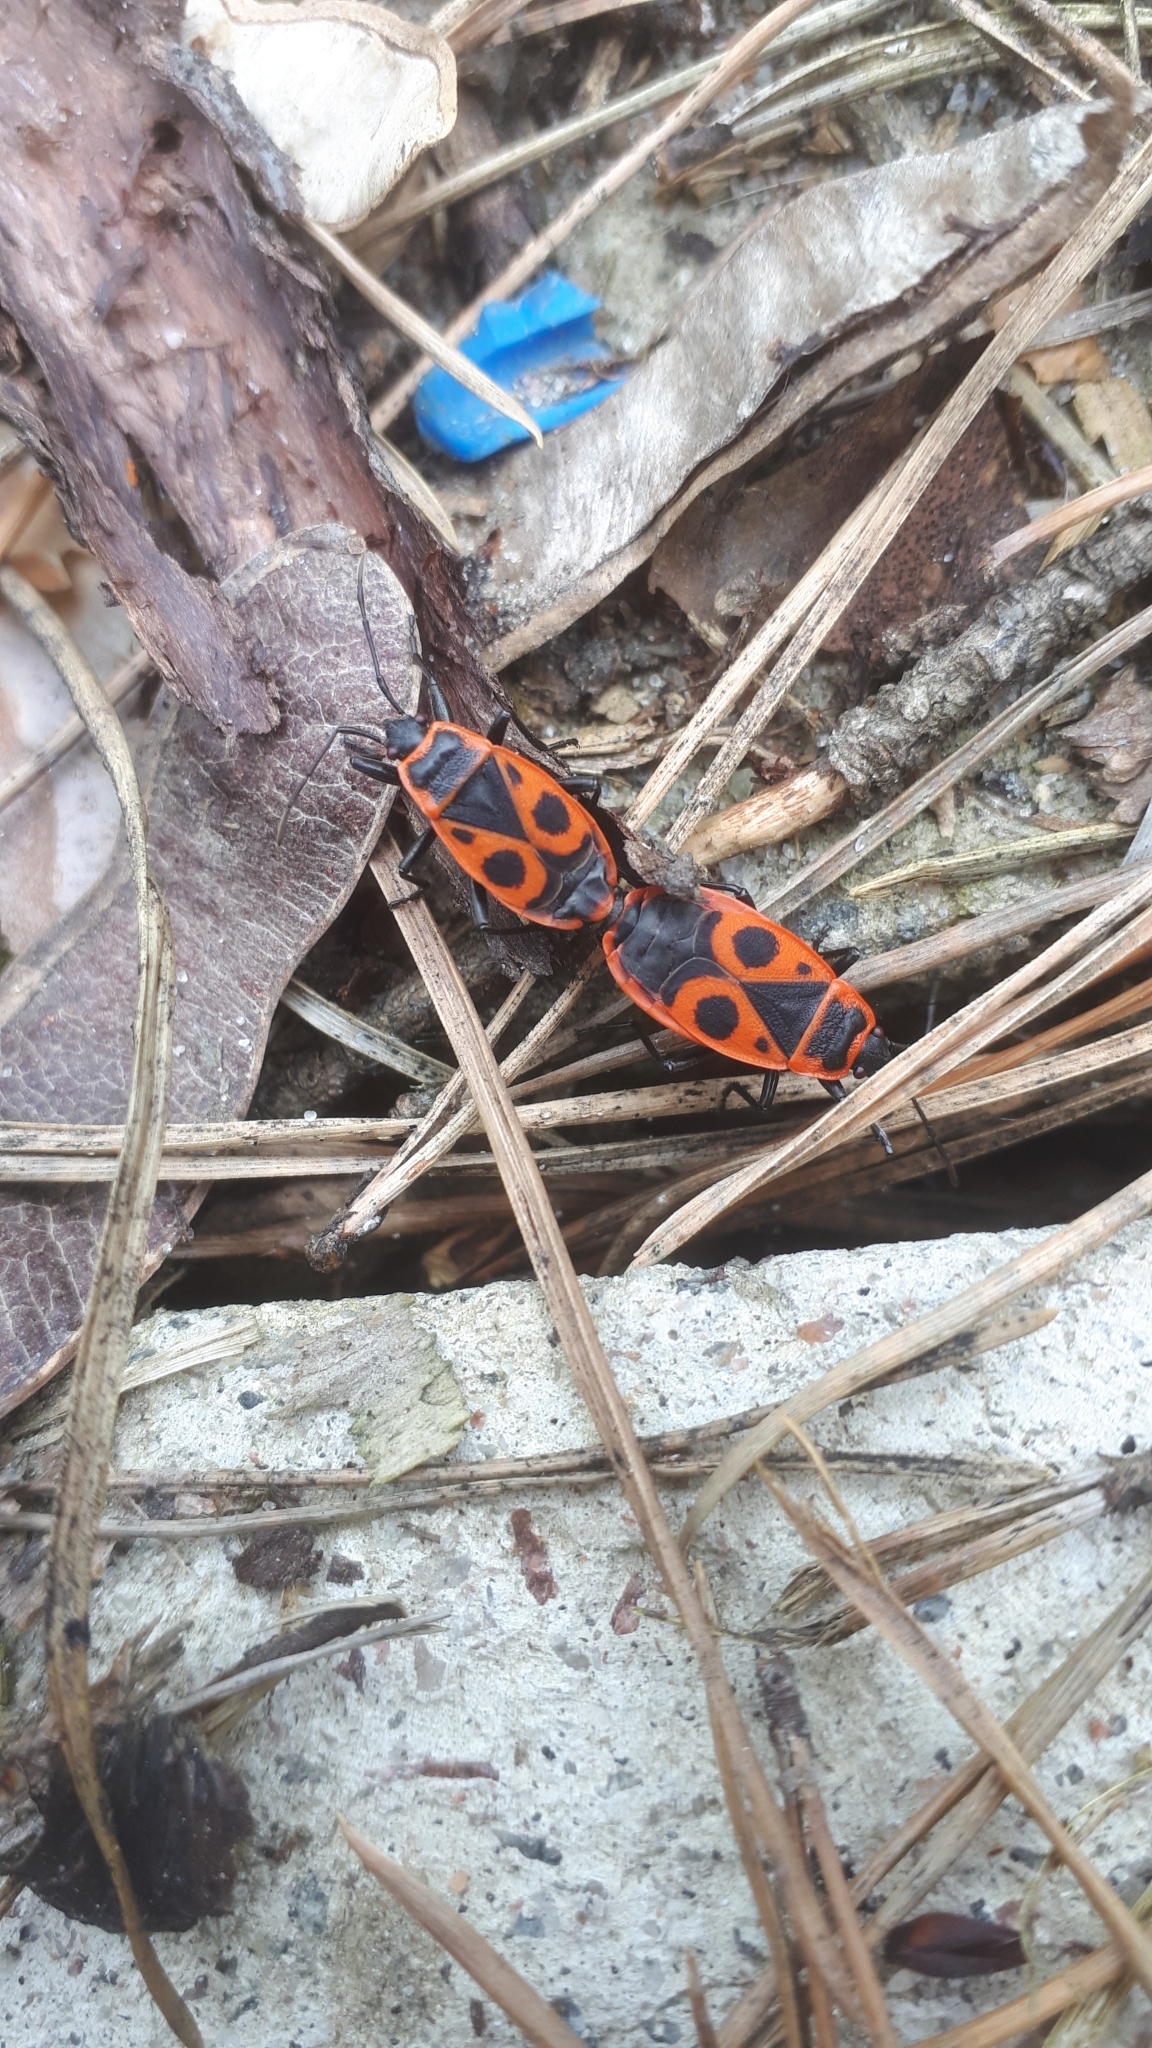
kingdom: Animalia
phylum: Arthropoda
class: Insecta
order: Hemiptera
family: Pyrrhocoridae
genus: Pyrrhocoris
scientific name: Pyrrhocoris apterus
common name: Firebug
